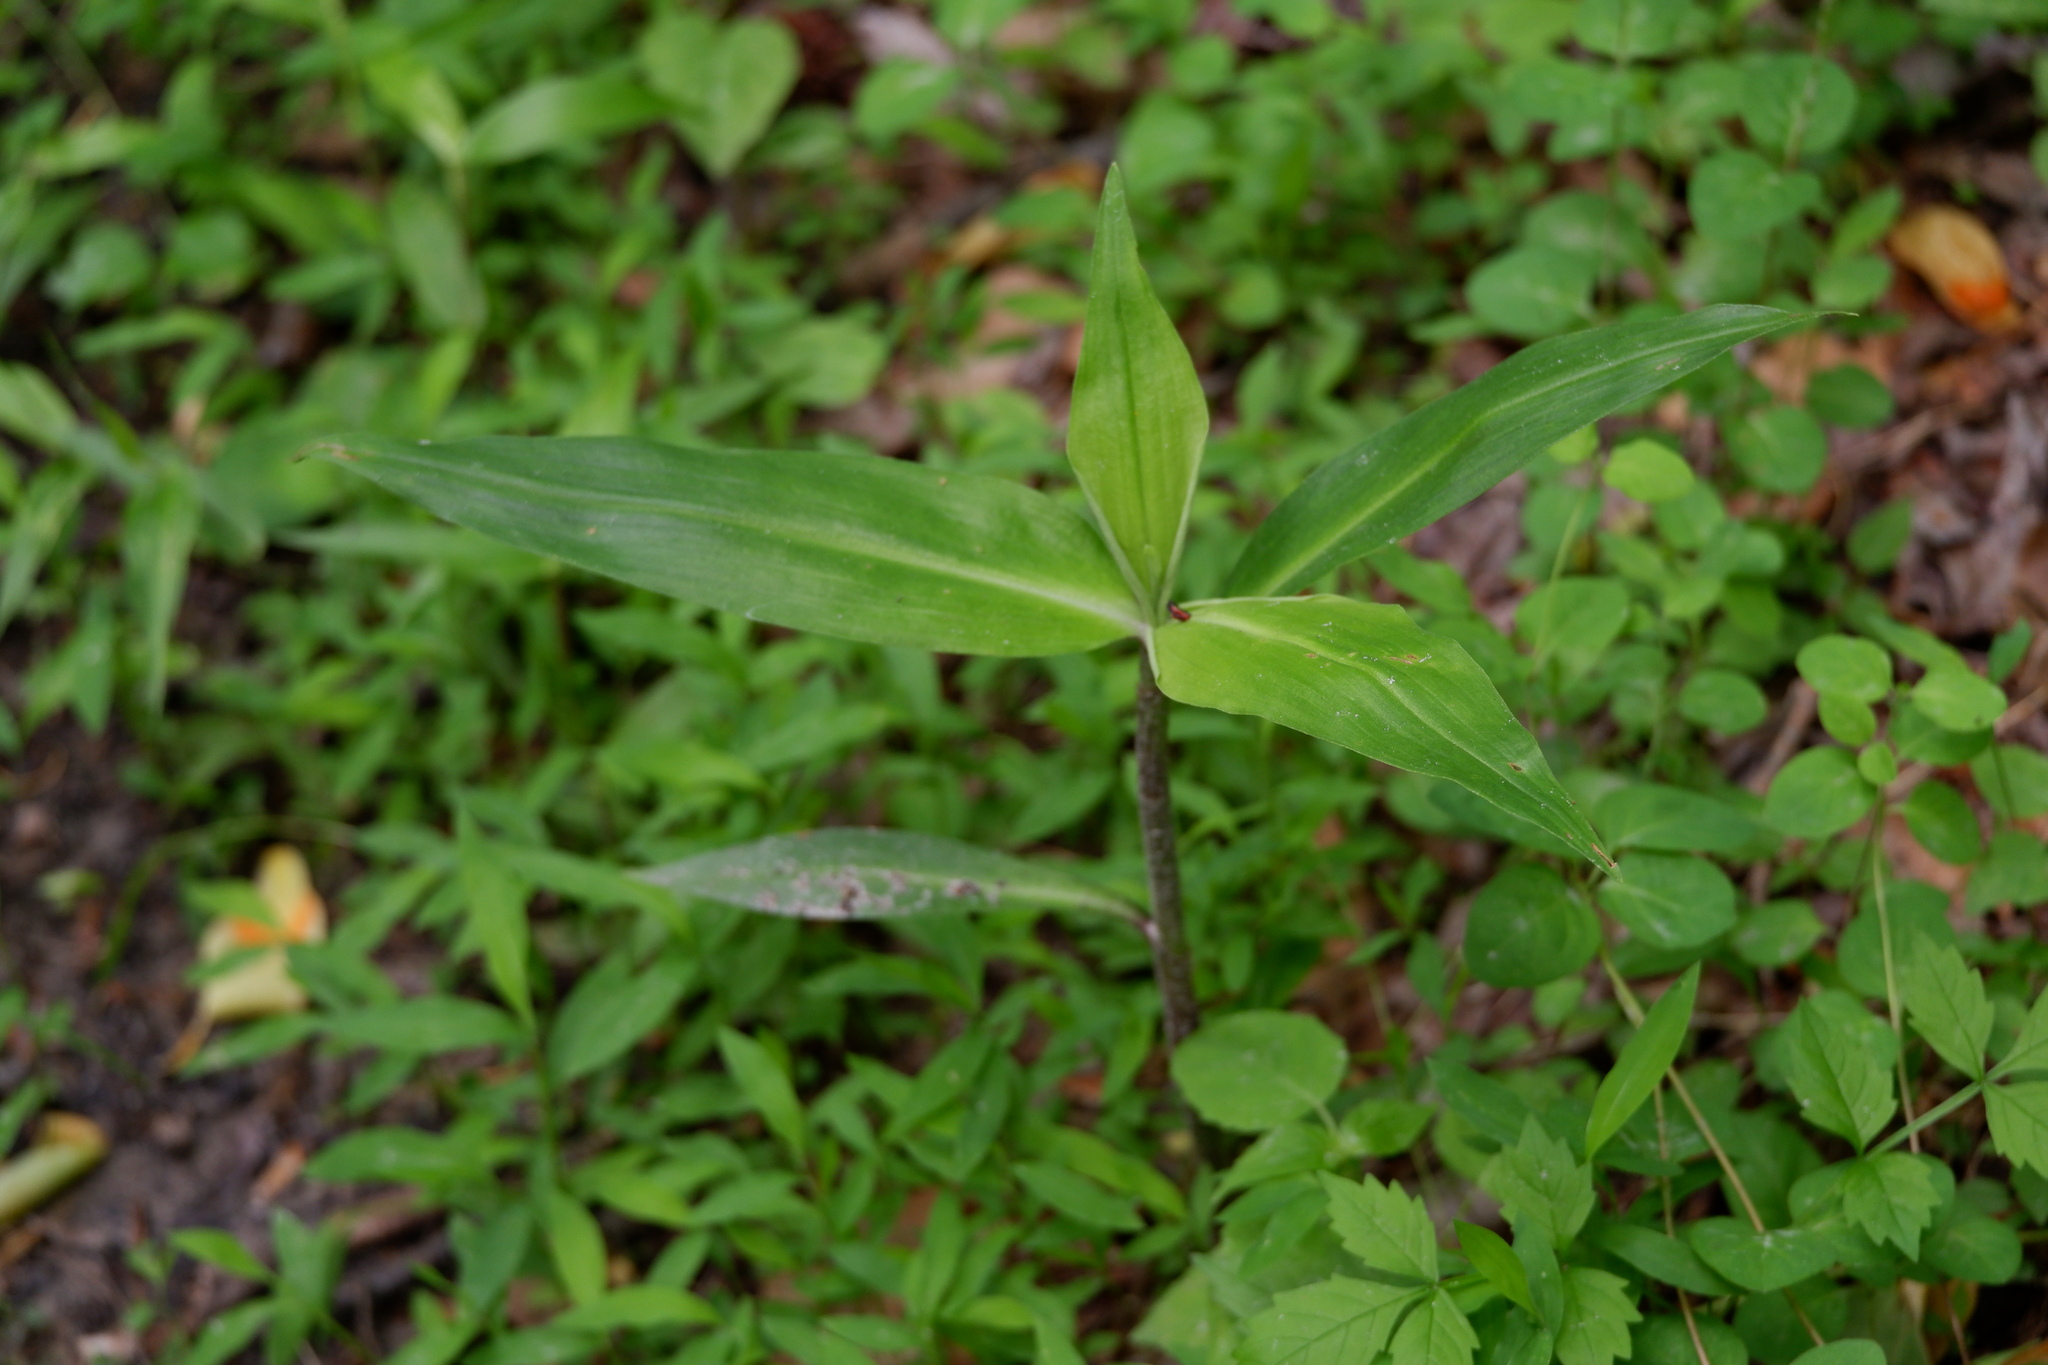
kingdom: Plantae
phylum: Tracheophyta
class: Liliopsida
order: Commelinales
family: Commelinaceae
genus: Commelina
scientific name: Commelina virginica
